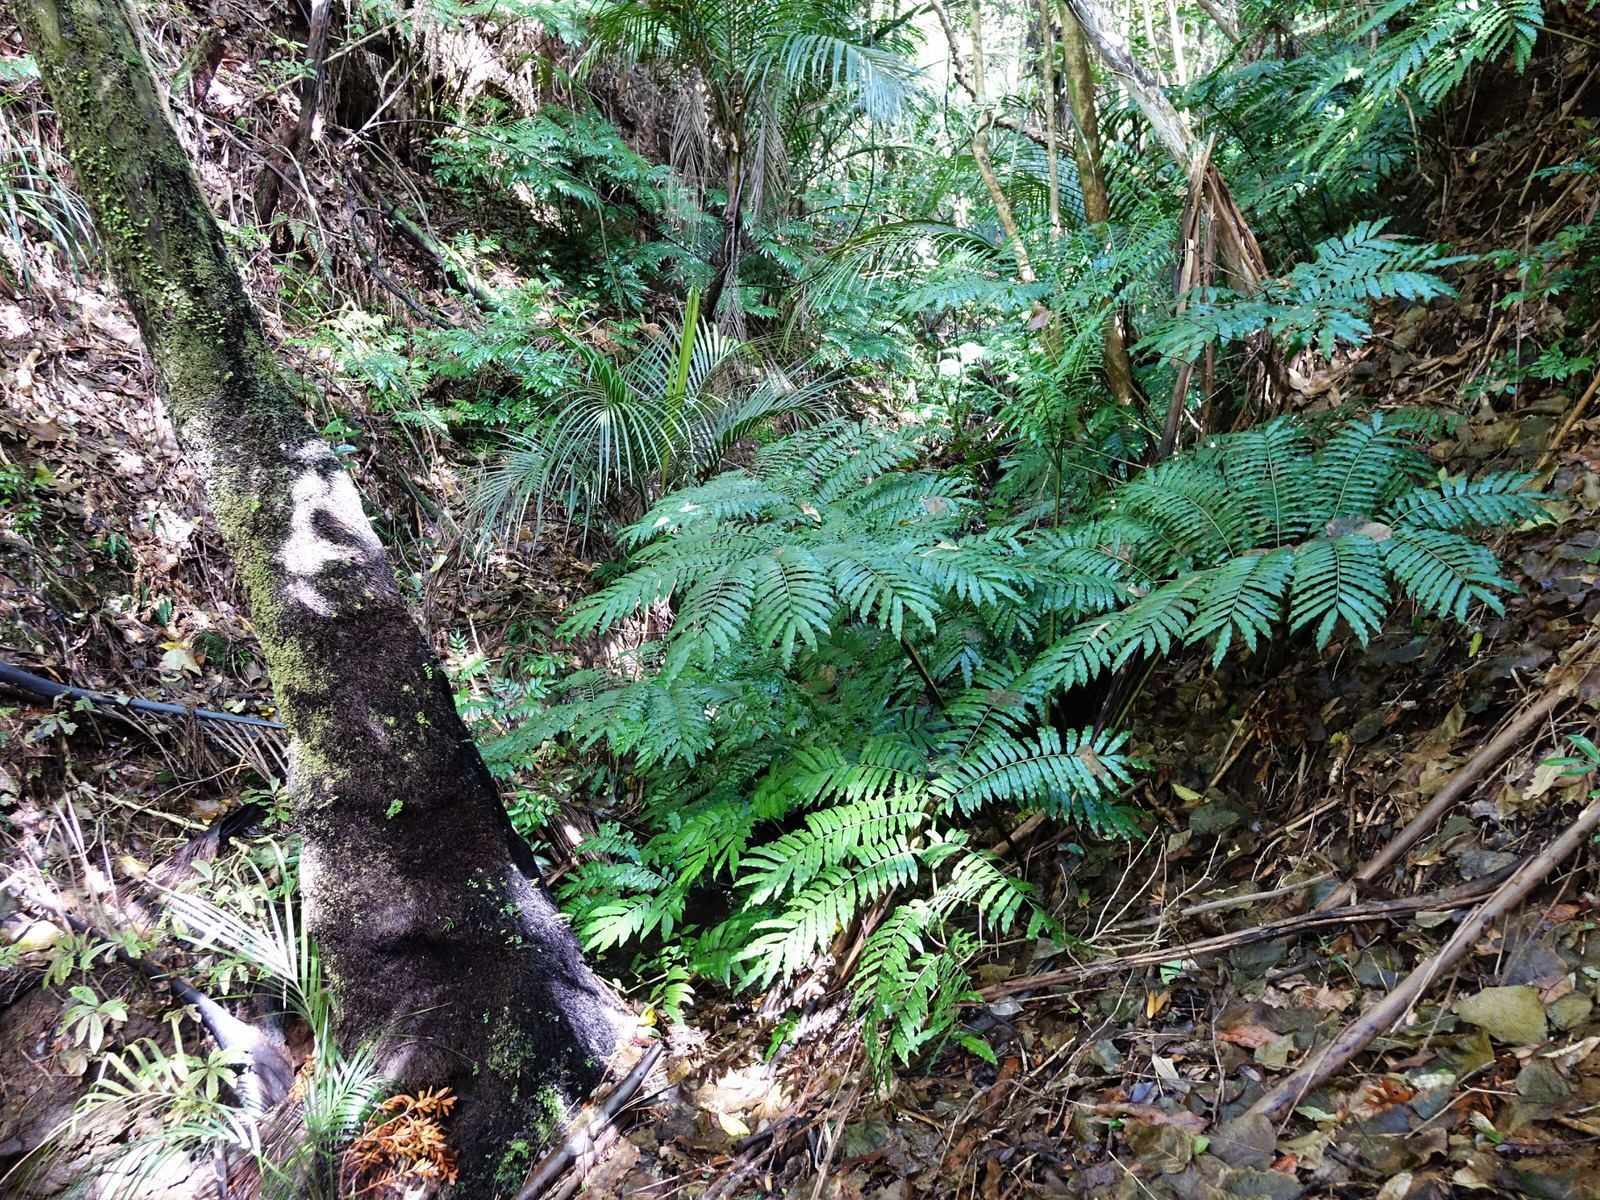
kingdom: Plantae
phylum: Tracheophyta
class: Polypodiopsida
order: Marattiales
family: Marattiaceae
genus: Ptisana
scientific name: Ptisana salicina
